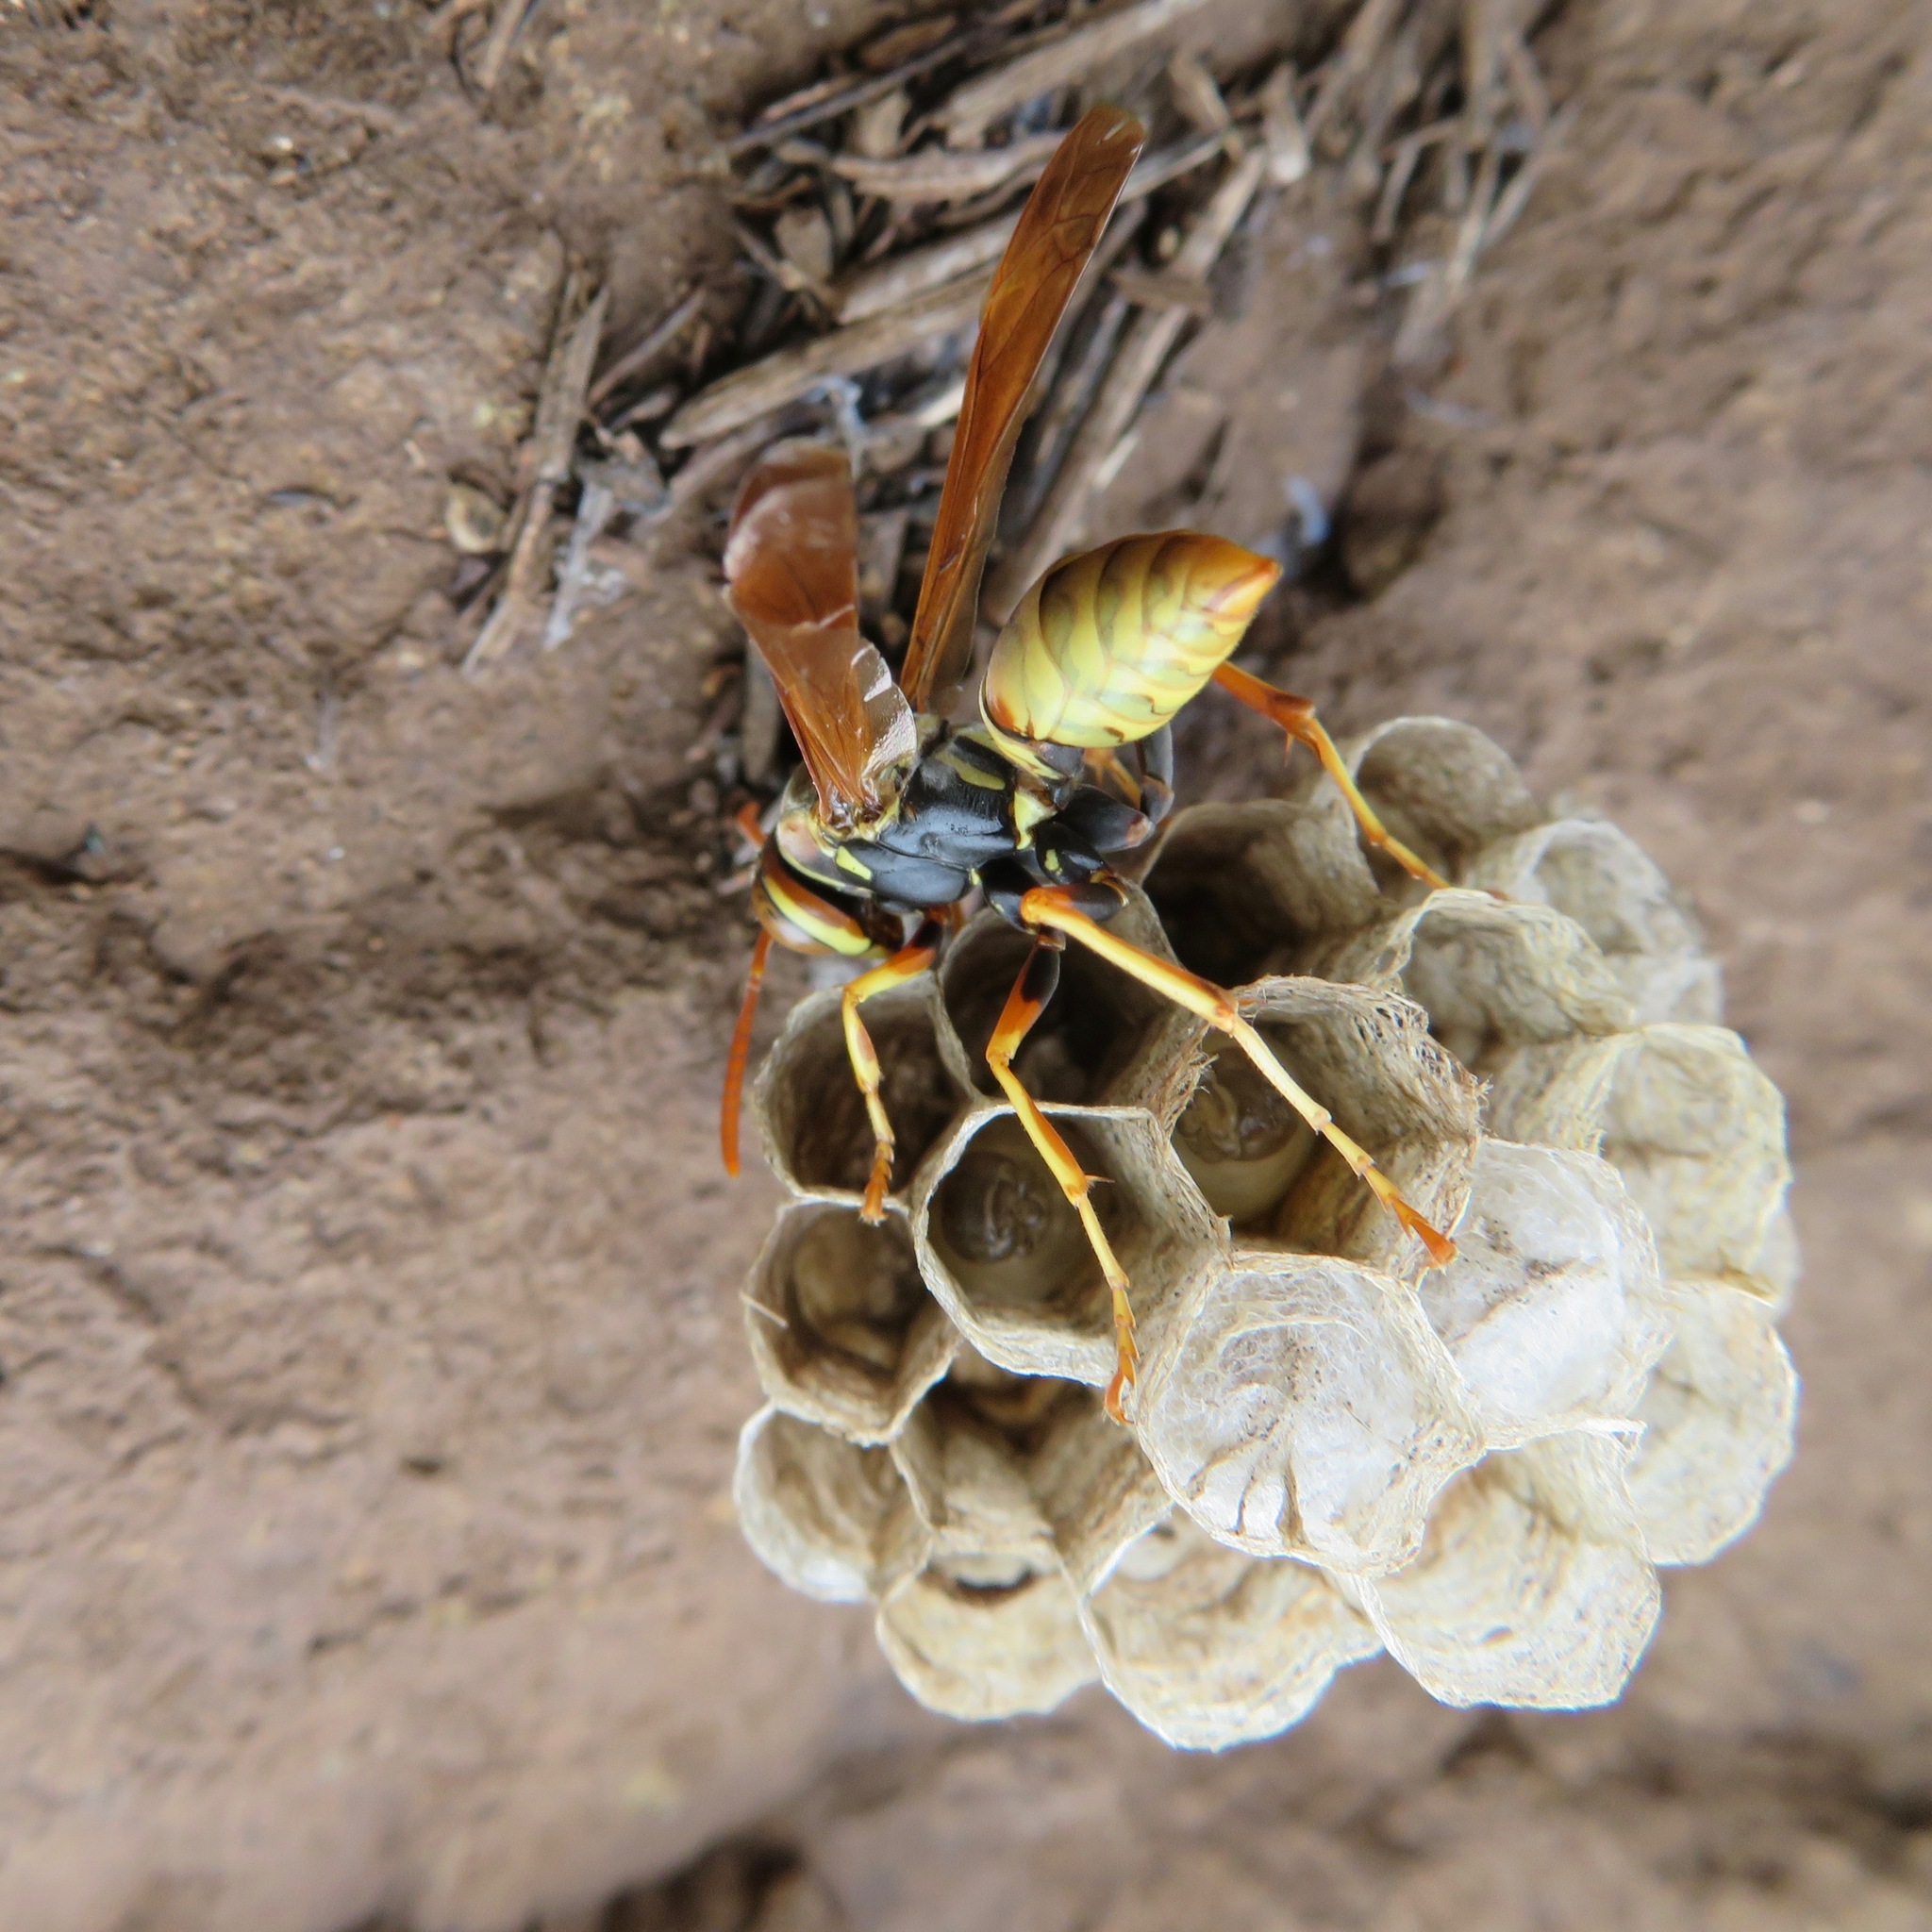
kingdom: Animalia
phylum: Arthropoda
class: Insecta
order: Hymenoptera
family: Eumenidae
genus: Polistes
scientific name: Polistes aurifer
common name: Paper wasp
